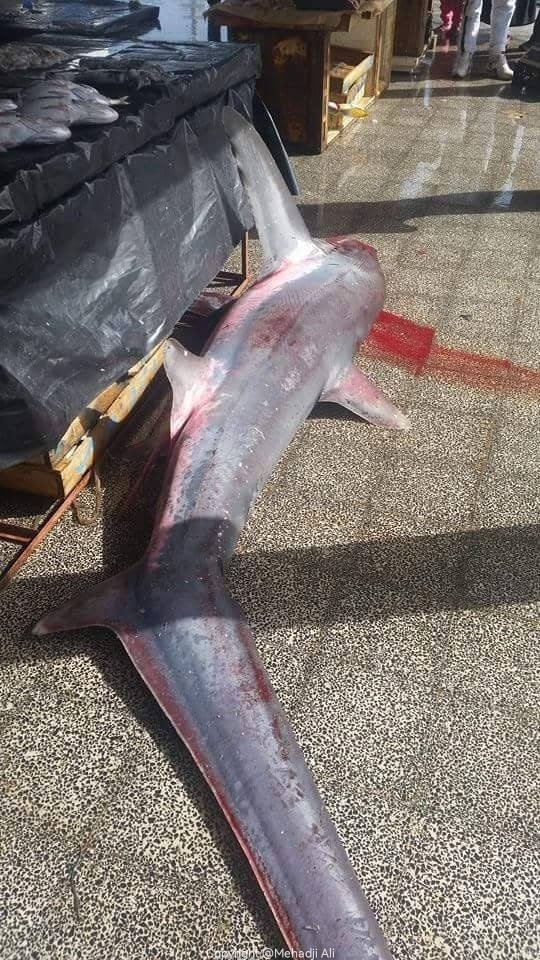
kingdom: Animalia
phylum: Chordata
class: Elasmobranchii
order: Lamniformes
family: Alopiidae
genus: Alopias
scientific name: Alopias vulpinus
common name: Thresher shark
